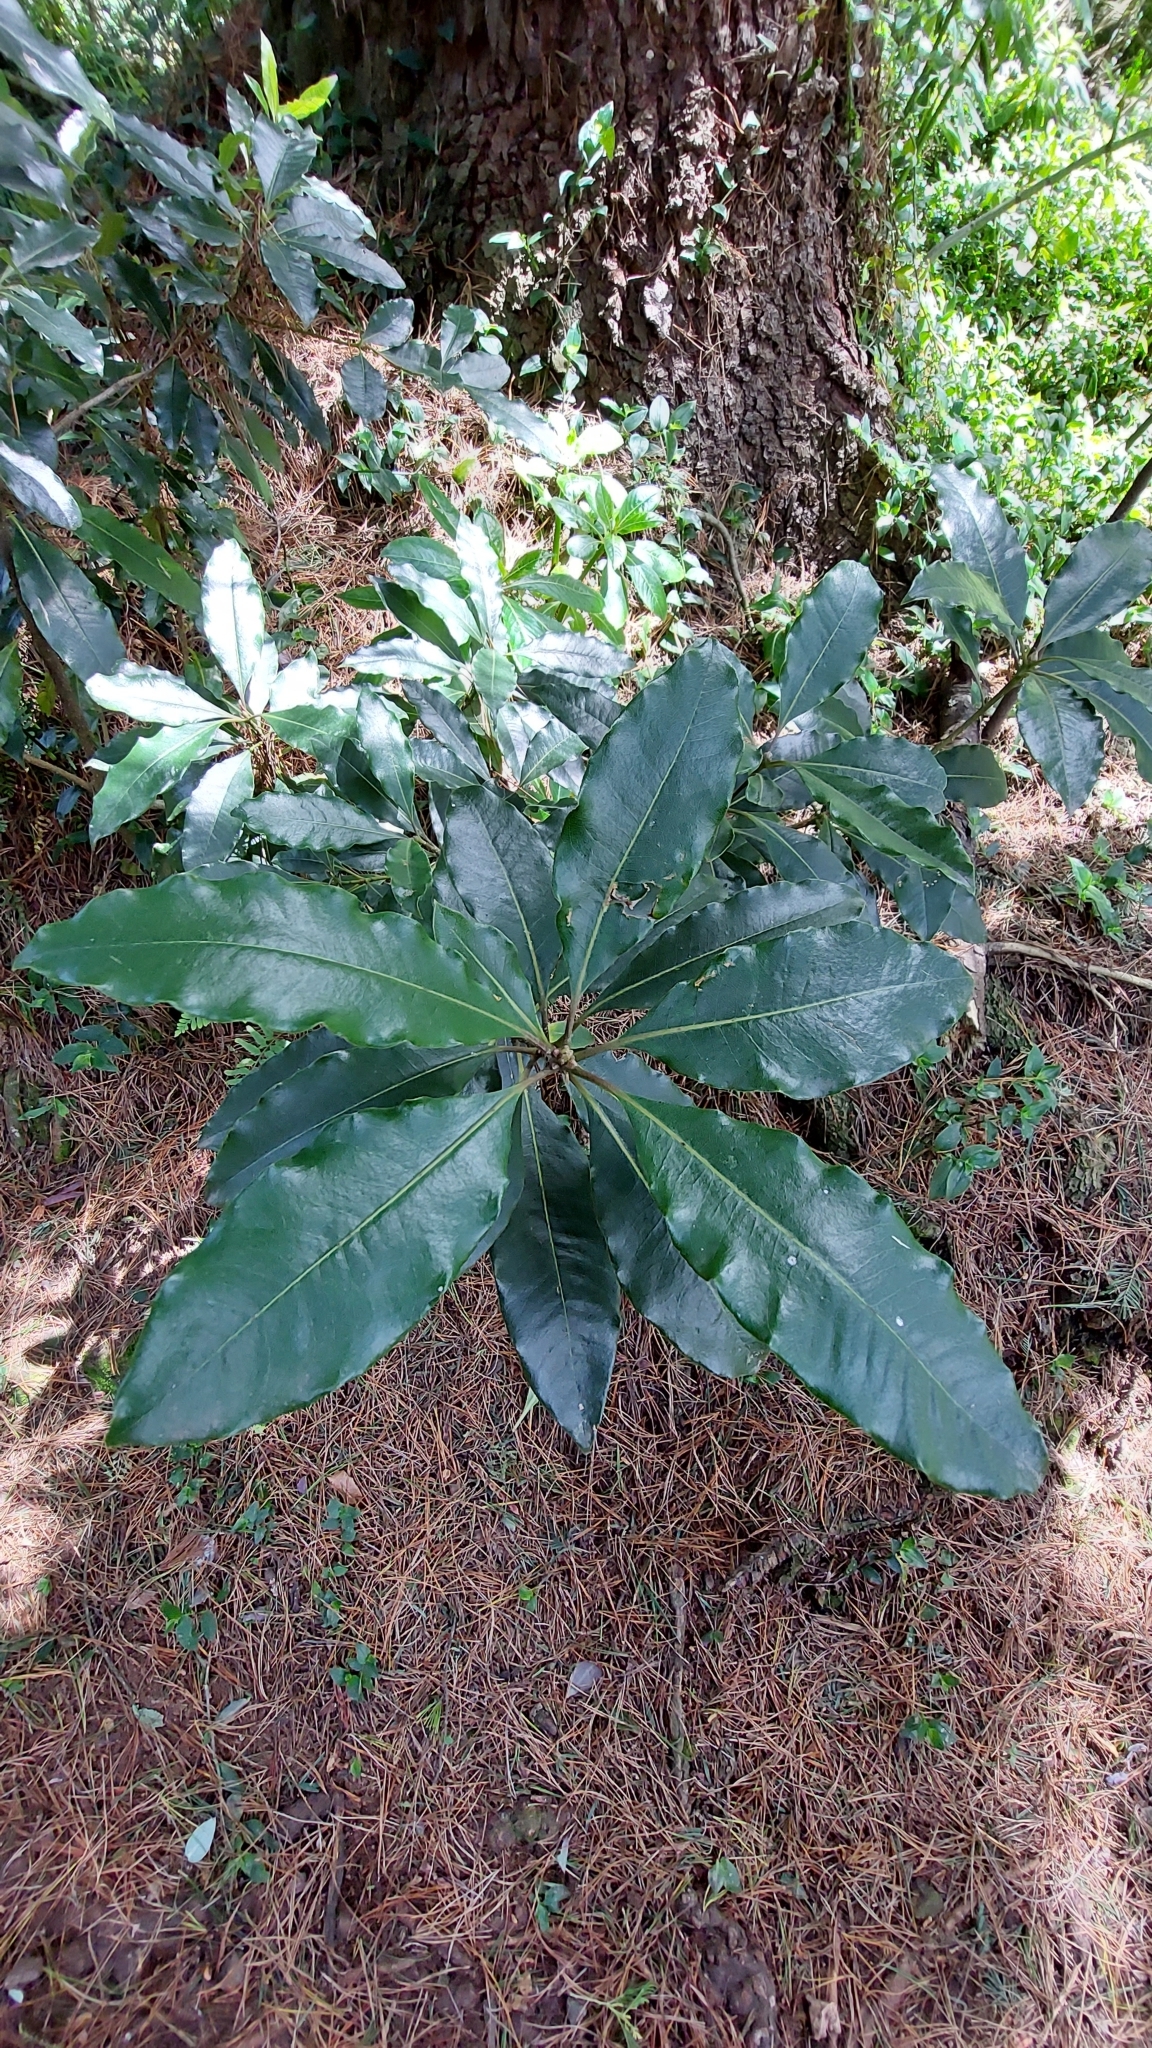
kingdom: Plantae
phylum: Tracheophyta
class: Magnoliopsida
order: Apiales
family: Pittosporaceae
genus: Pittosporum
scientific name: Pittosporum undulatum
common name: Australian cheesewood
